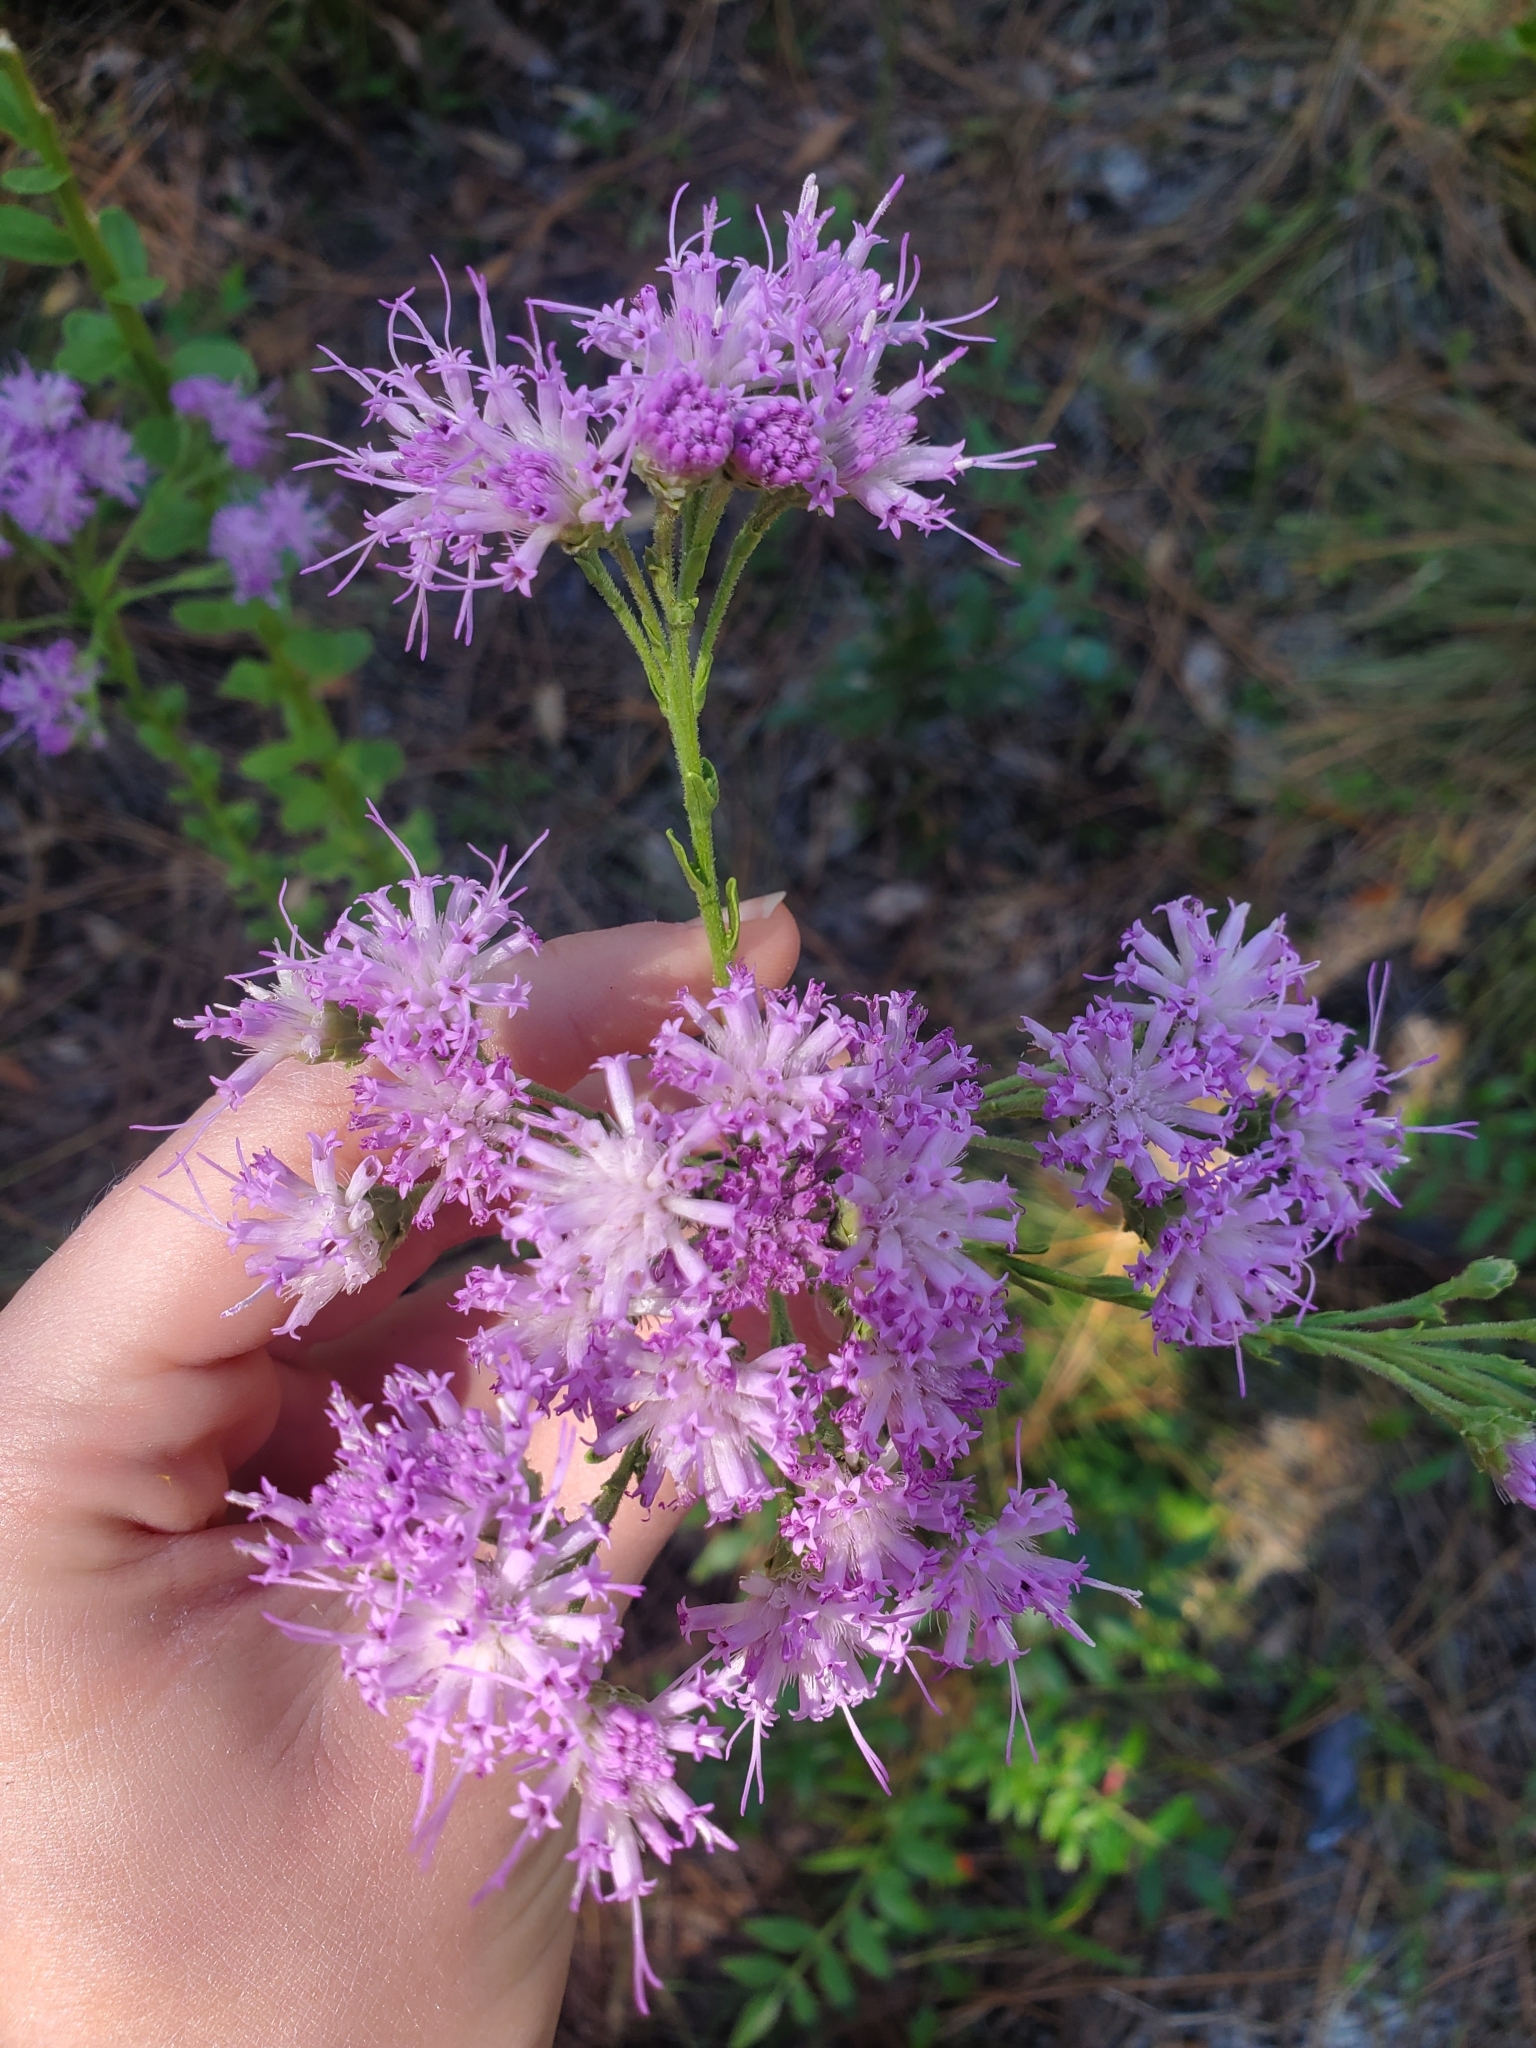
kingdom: Plantae
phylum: Tracheophyta
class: Magnoliopsida
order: Asterales
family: Asteraceae
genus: Carphephorus
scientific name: Carphephorus corymbosus
